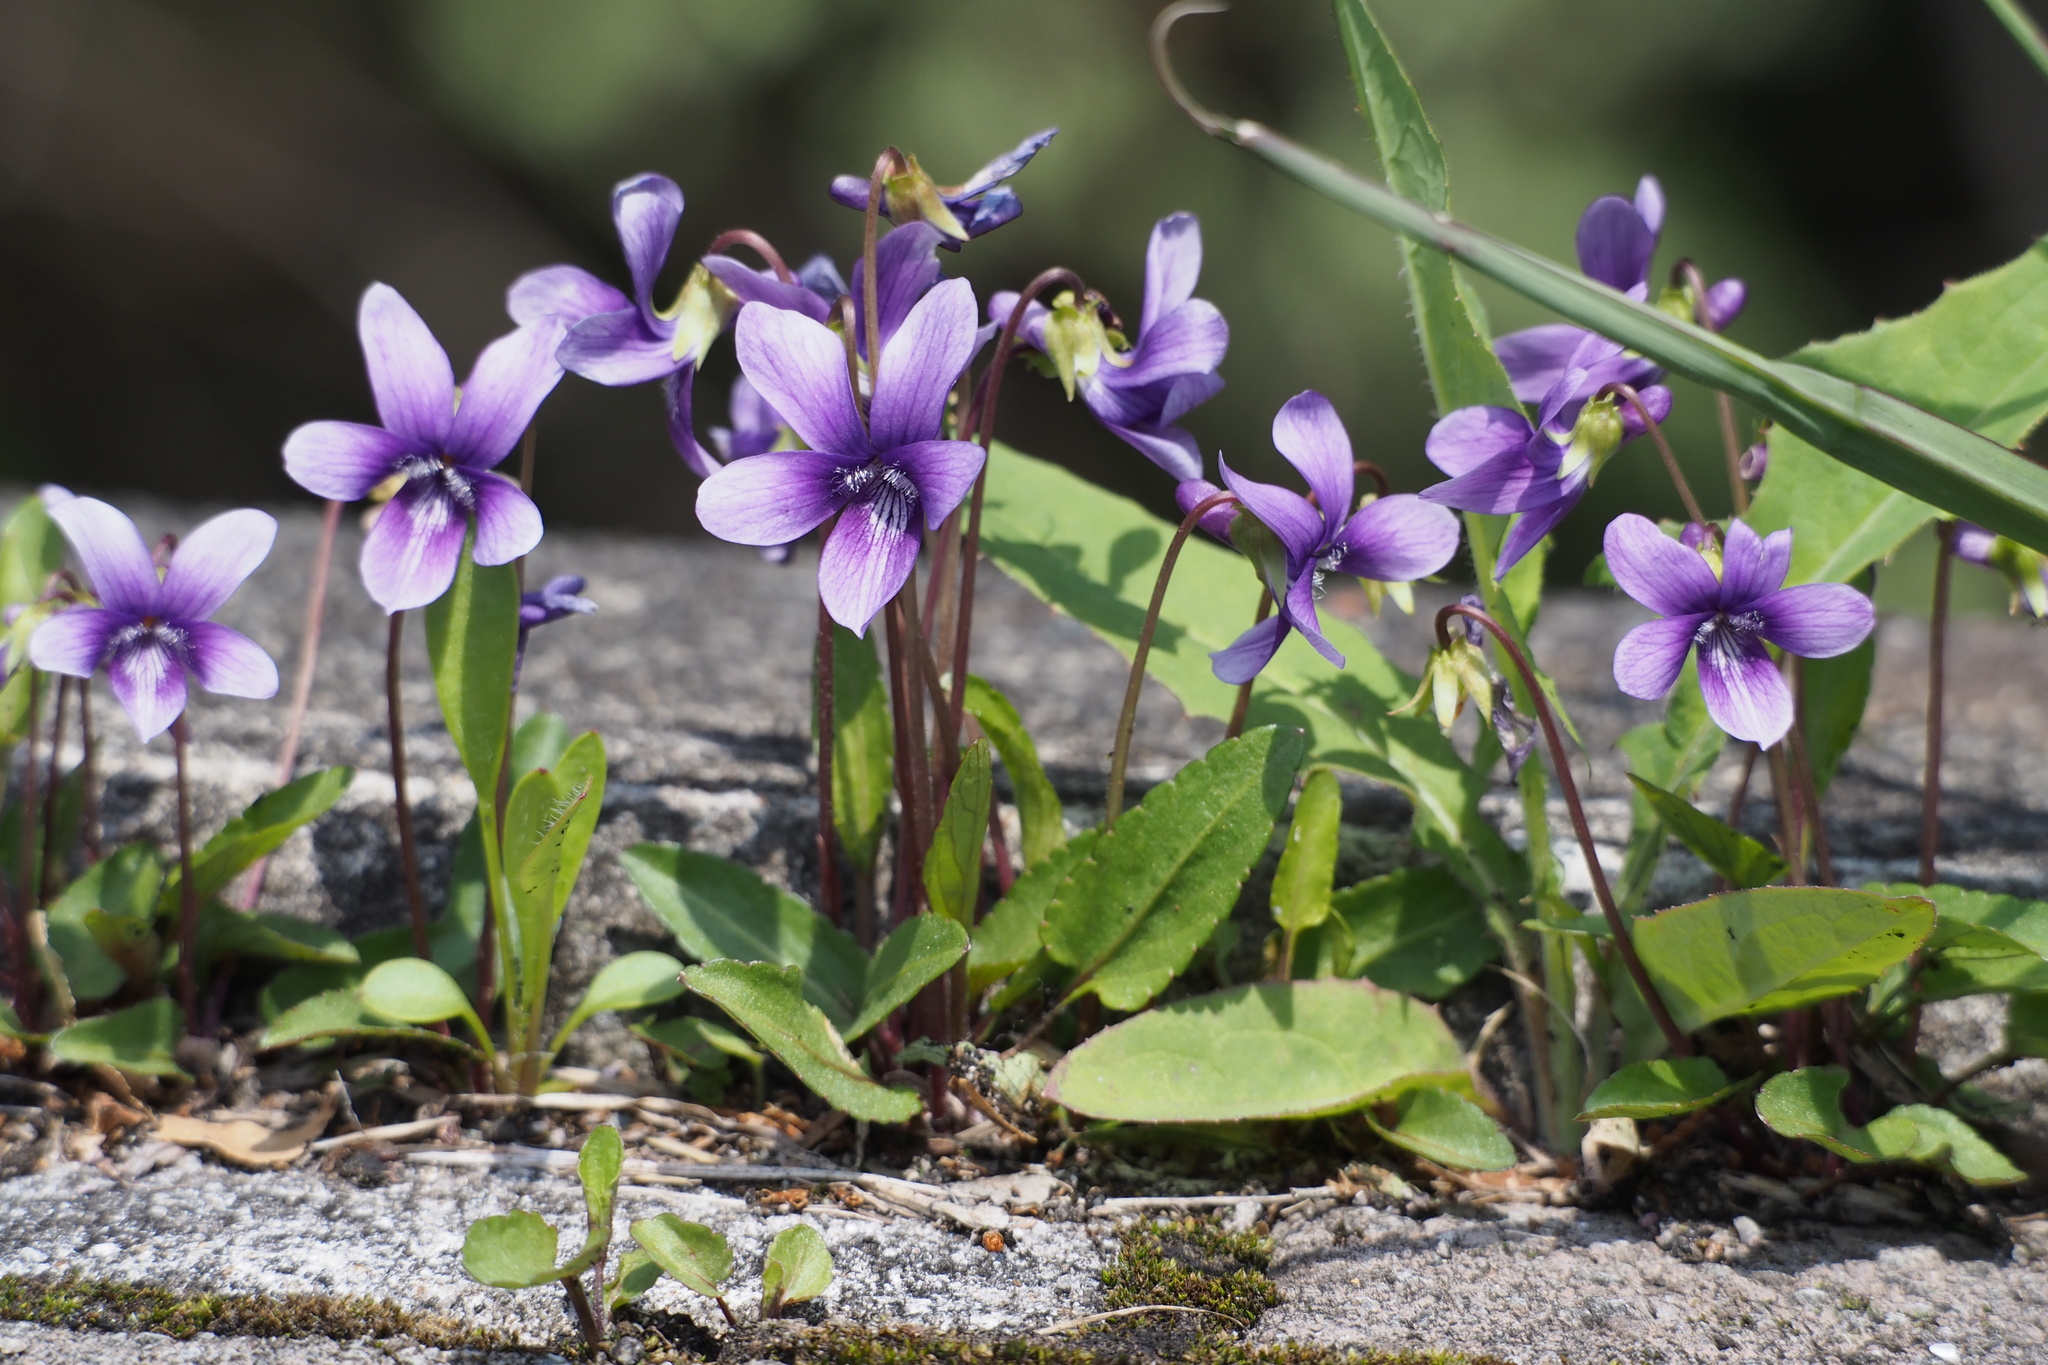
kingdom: Plantae
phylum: Tracheophyta
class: Magnoliopsida
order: Malpighiales
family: Violaceae
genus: Viola
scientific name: Viola mandshurica
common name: Manchuria violet
